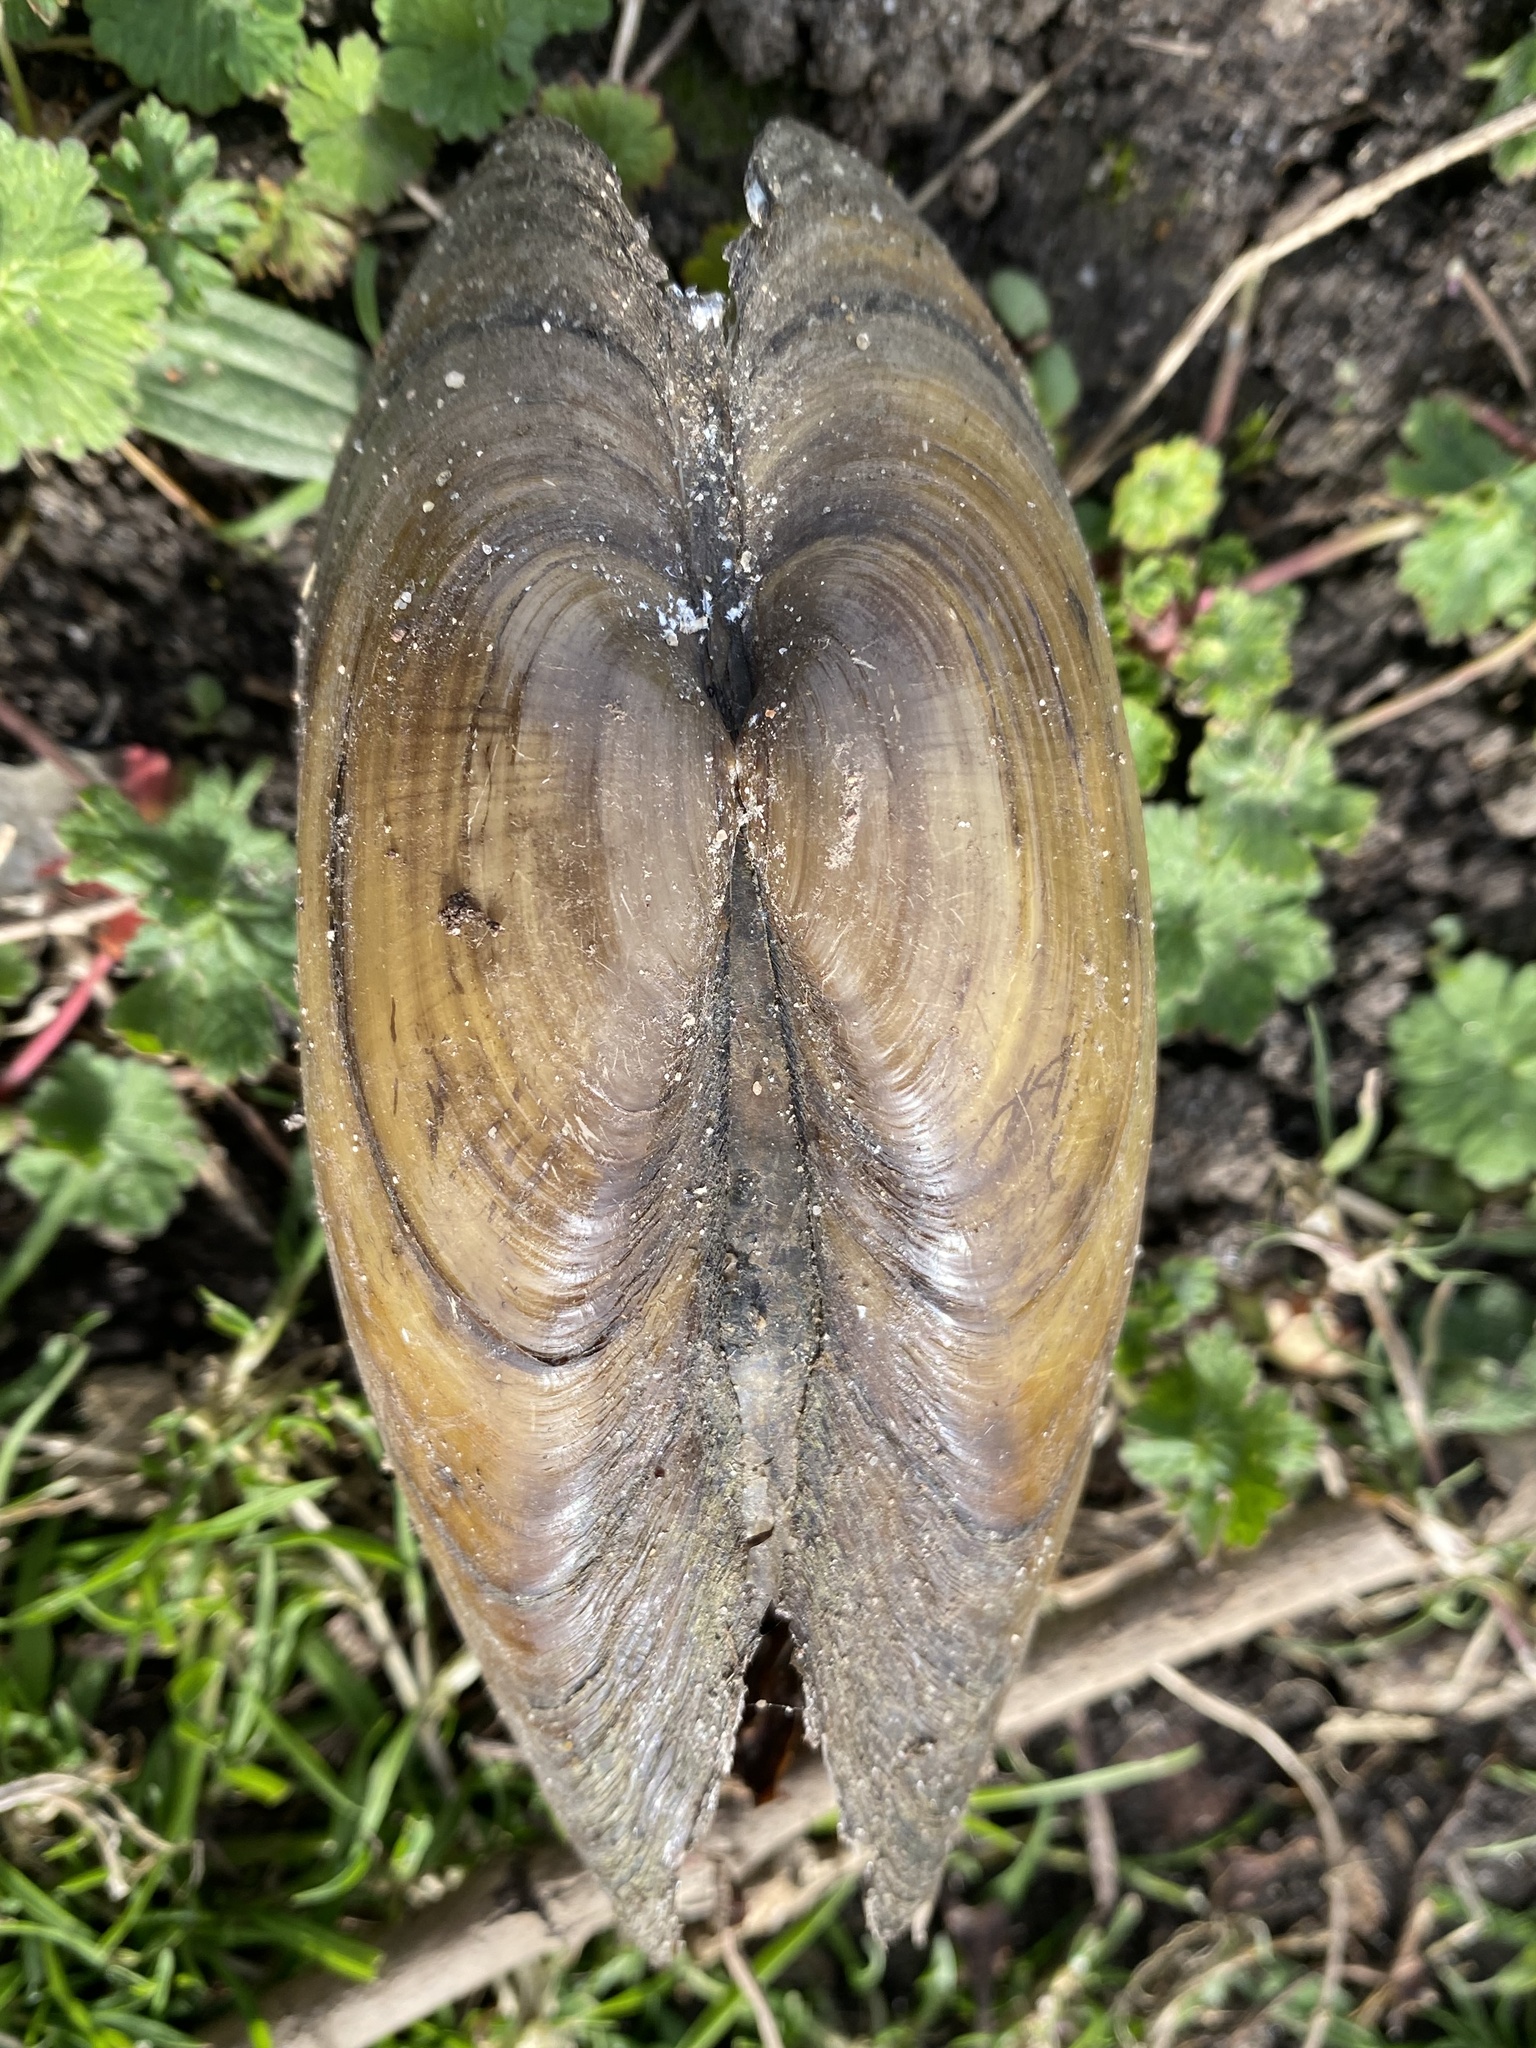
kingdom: Animalia
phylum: Mollusca
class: Bivalvia
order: Unionida
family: Unionidae
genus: Unio
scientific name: Unio pictorum
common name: Painter's mussel
